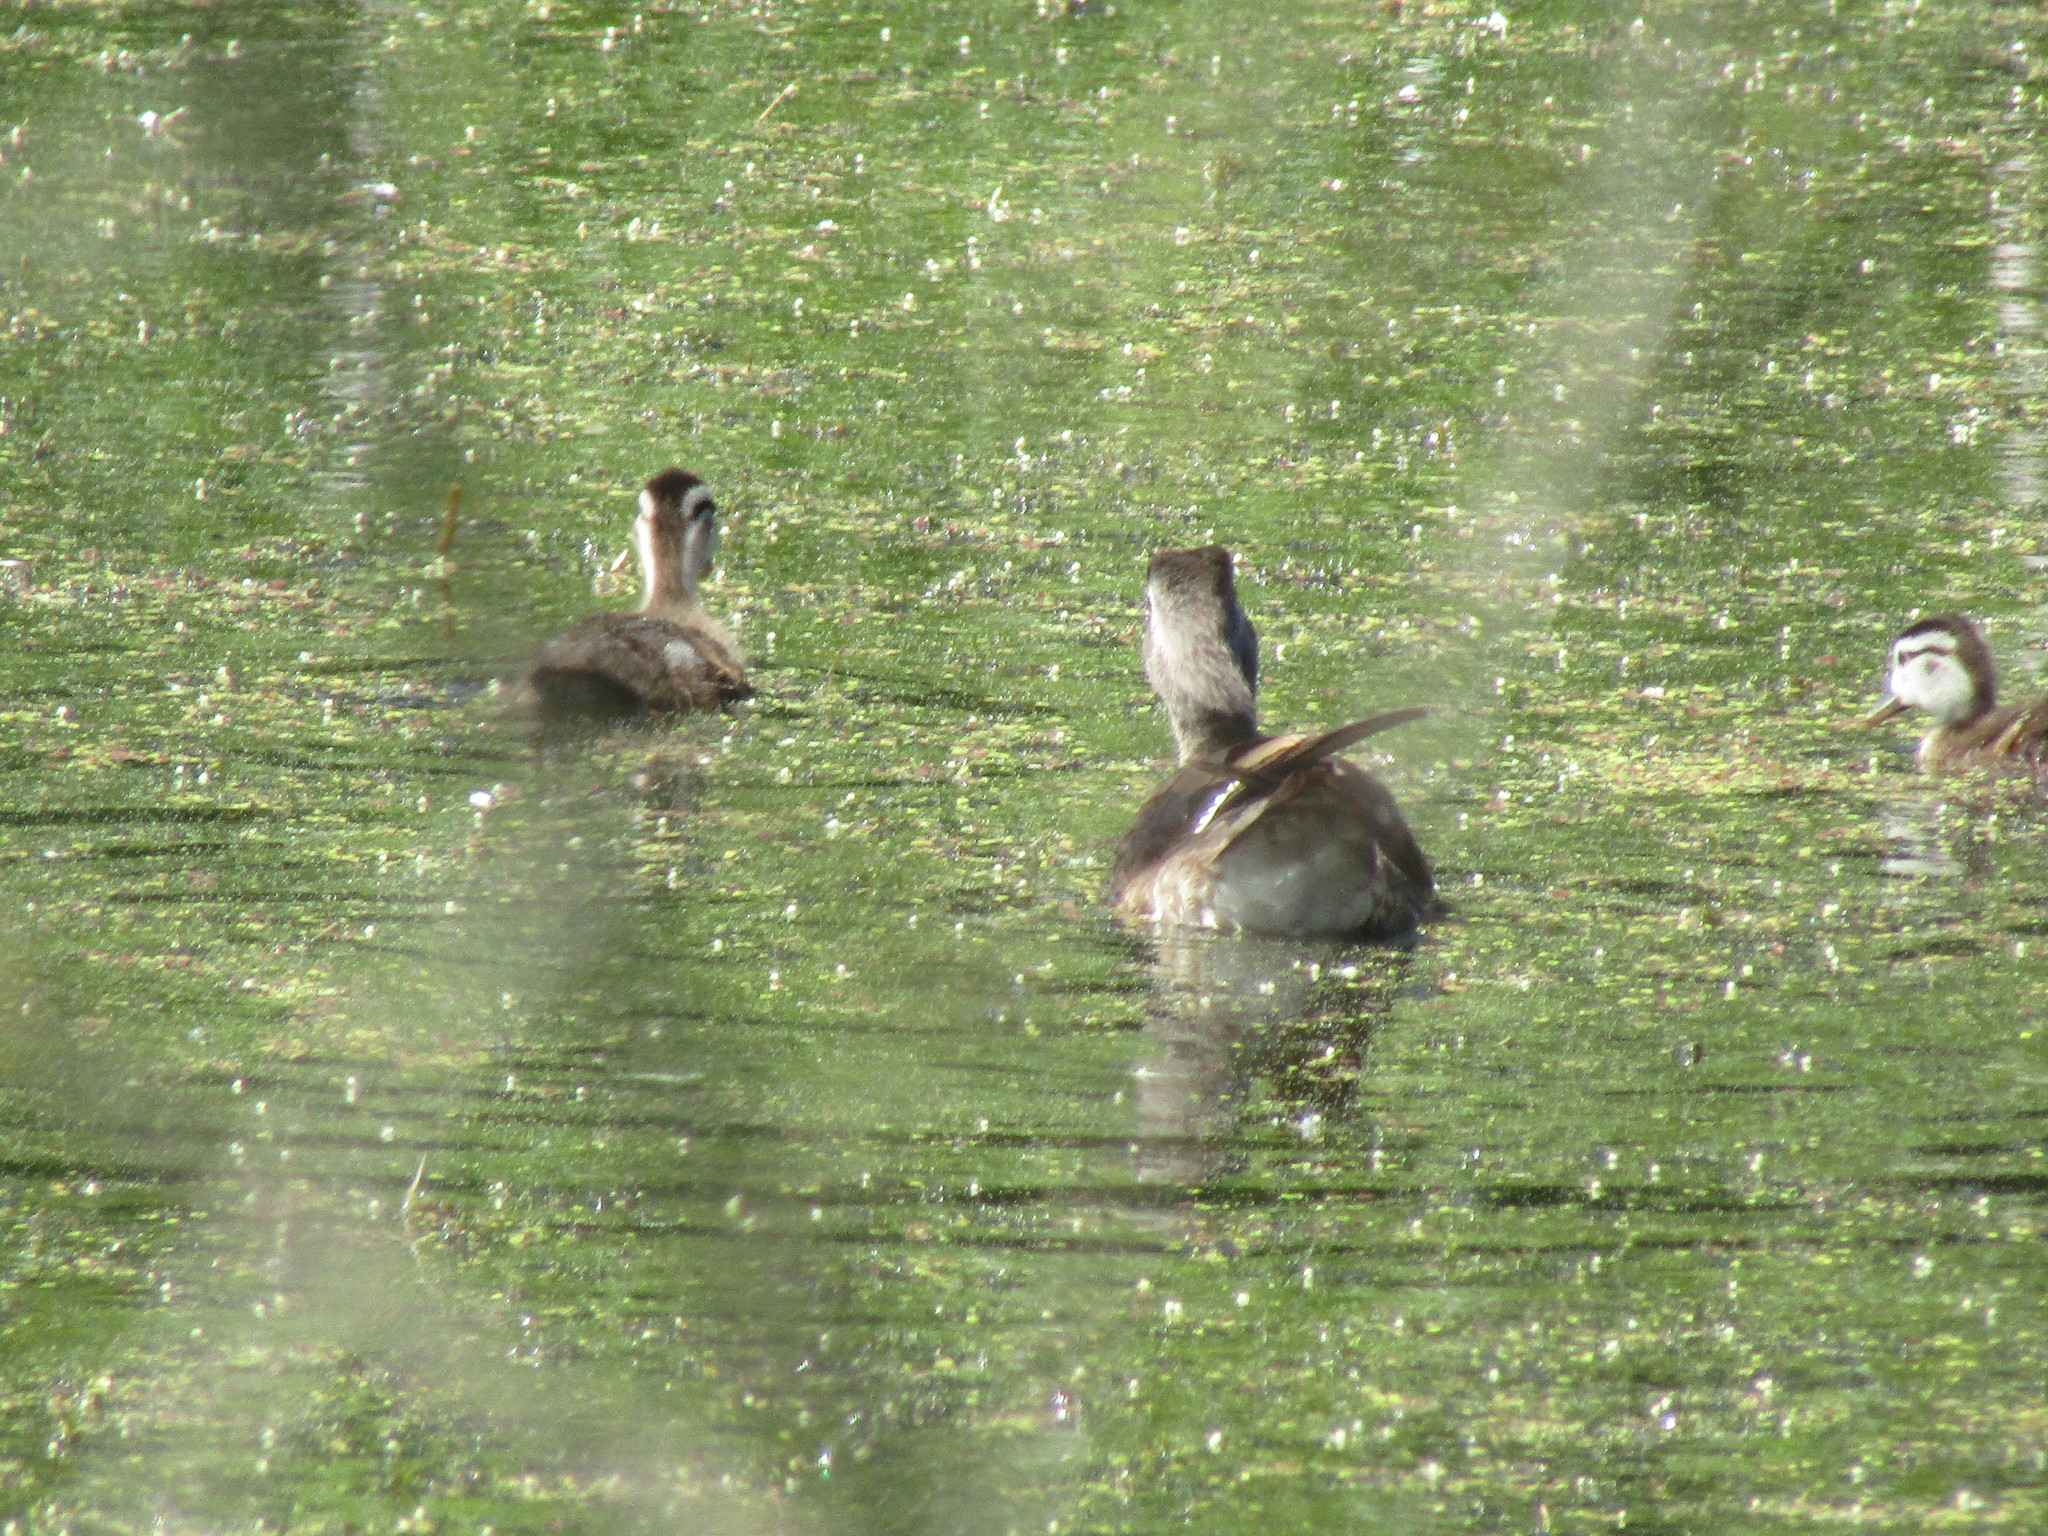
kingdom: Animalia
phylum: Chordata
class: Aves
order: Anseriformes
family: Anatidae
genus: Aix
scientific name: Aix sponsa
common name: Wood duck
